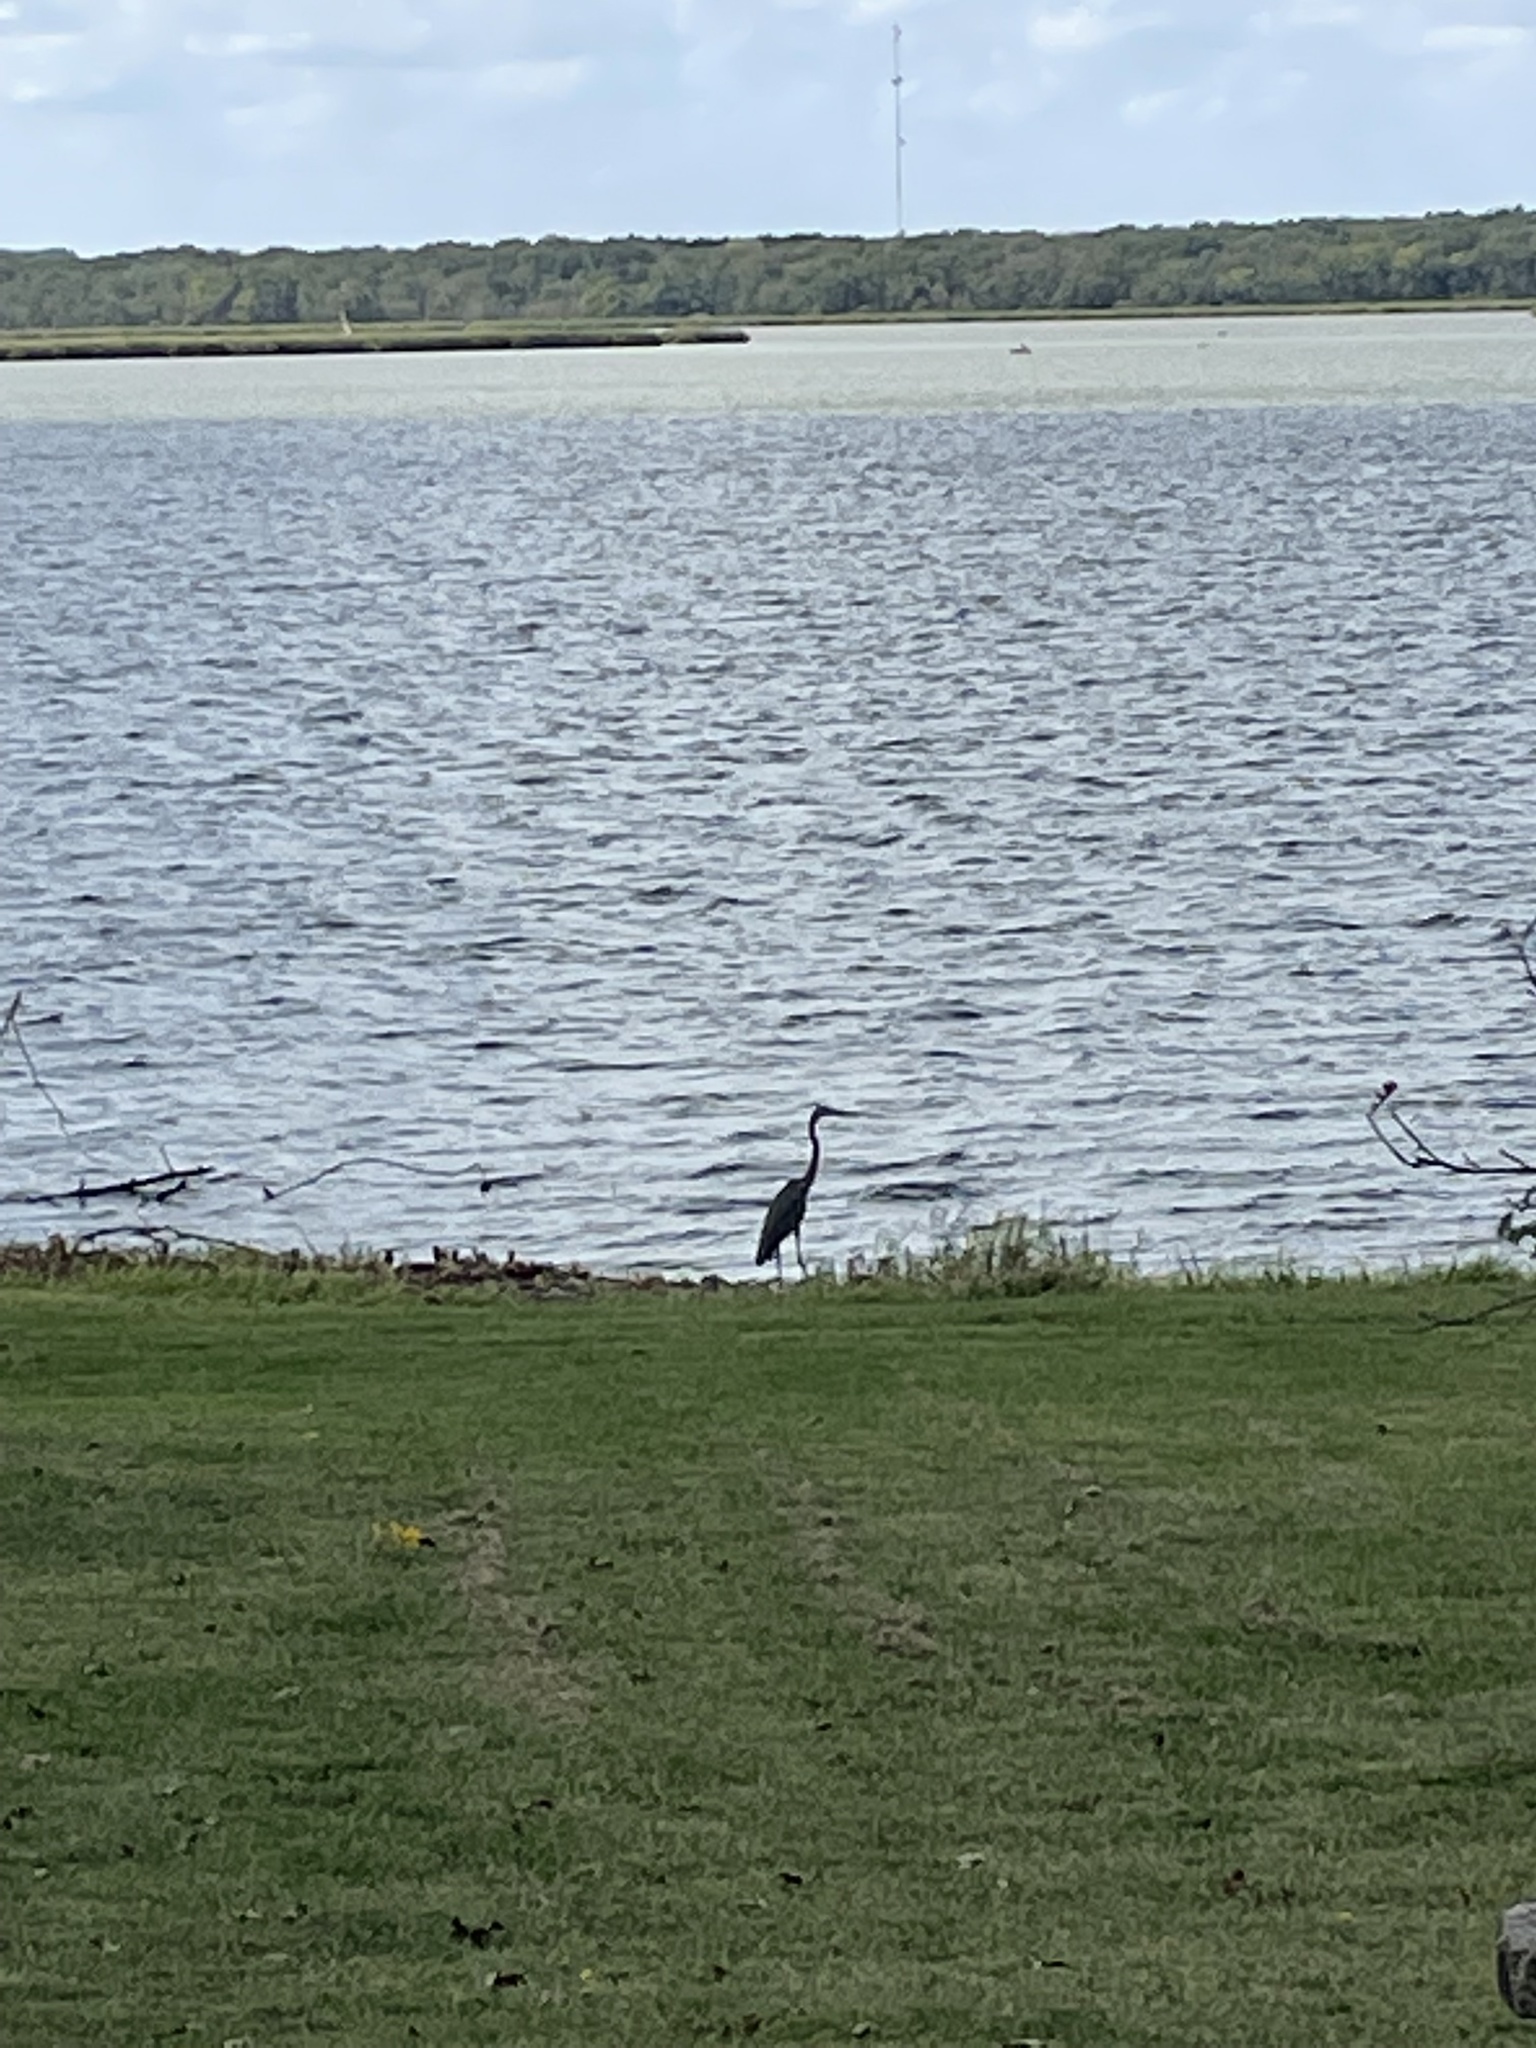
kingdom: Animalia
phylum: Chordata
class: Aves
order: Pelecaniformes
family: Ardeidae
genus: Ardea
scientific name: Ardea herodias
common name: Great blue heron
